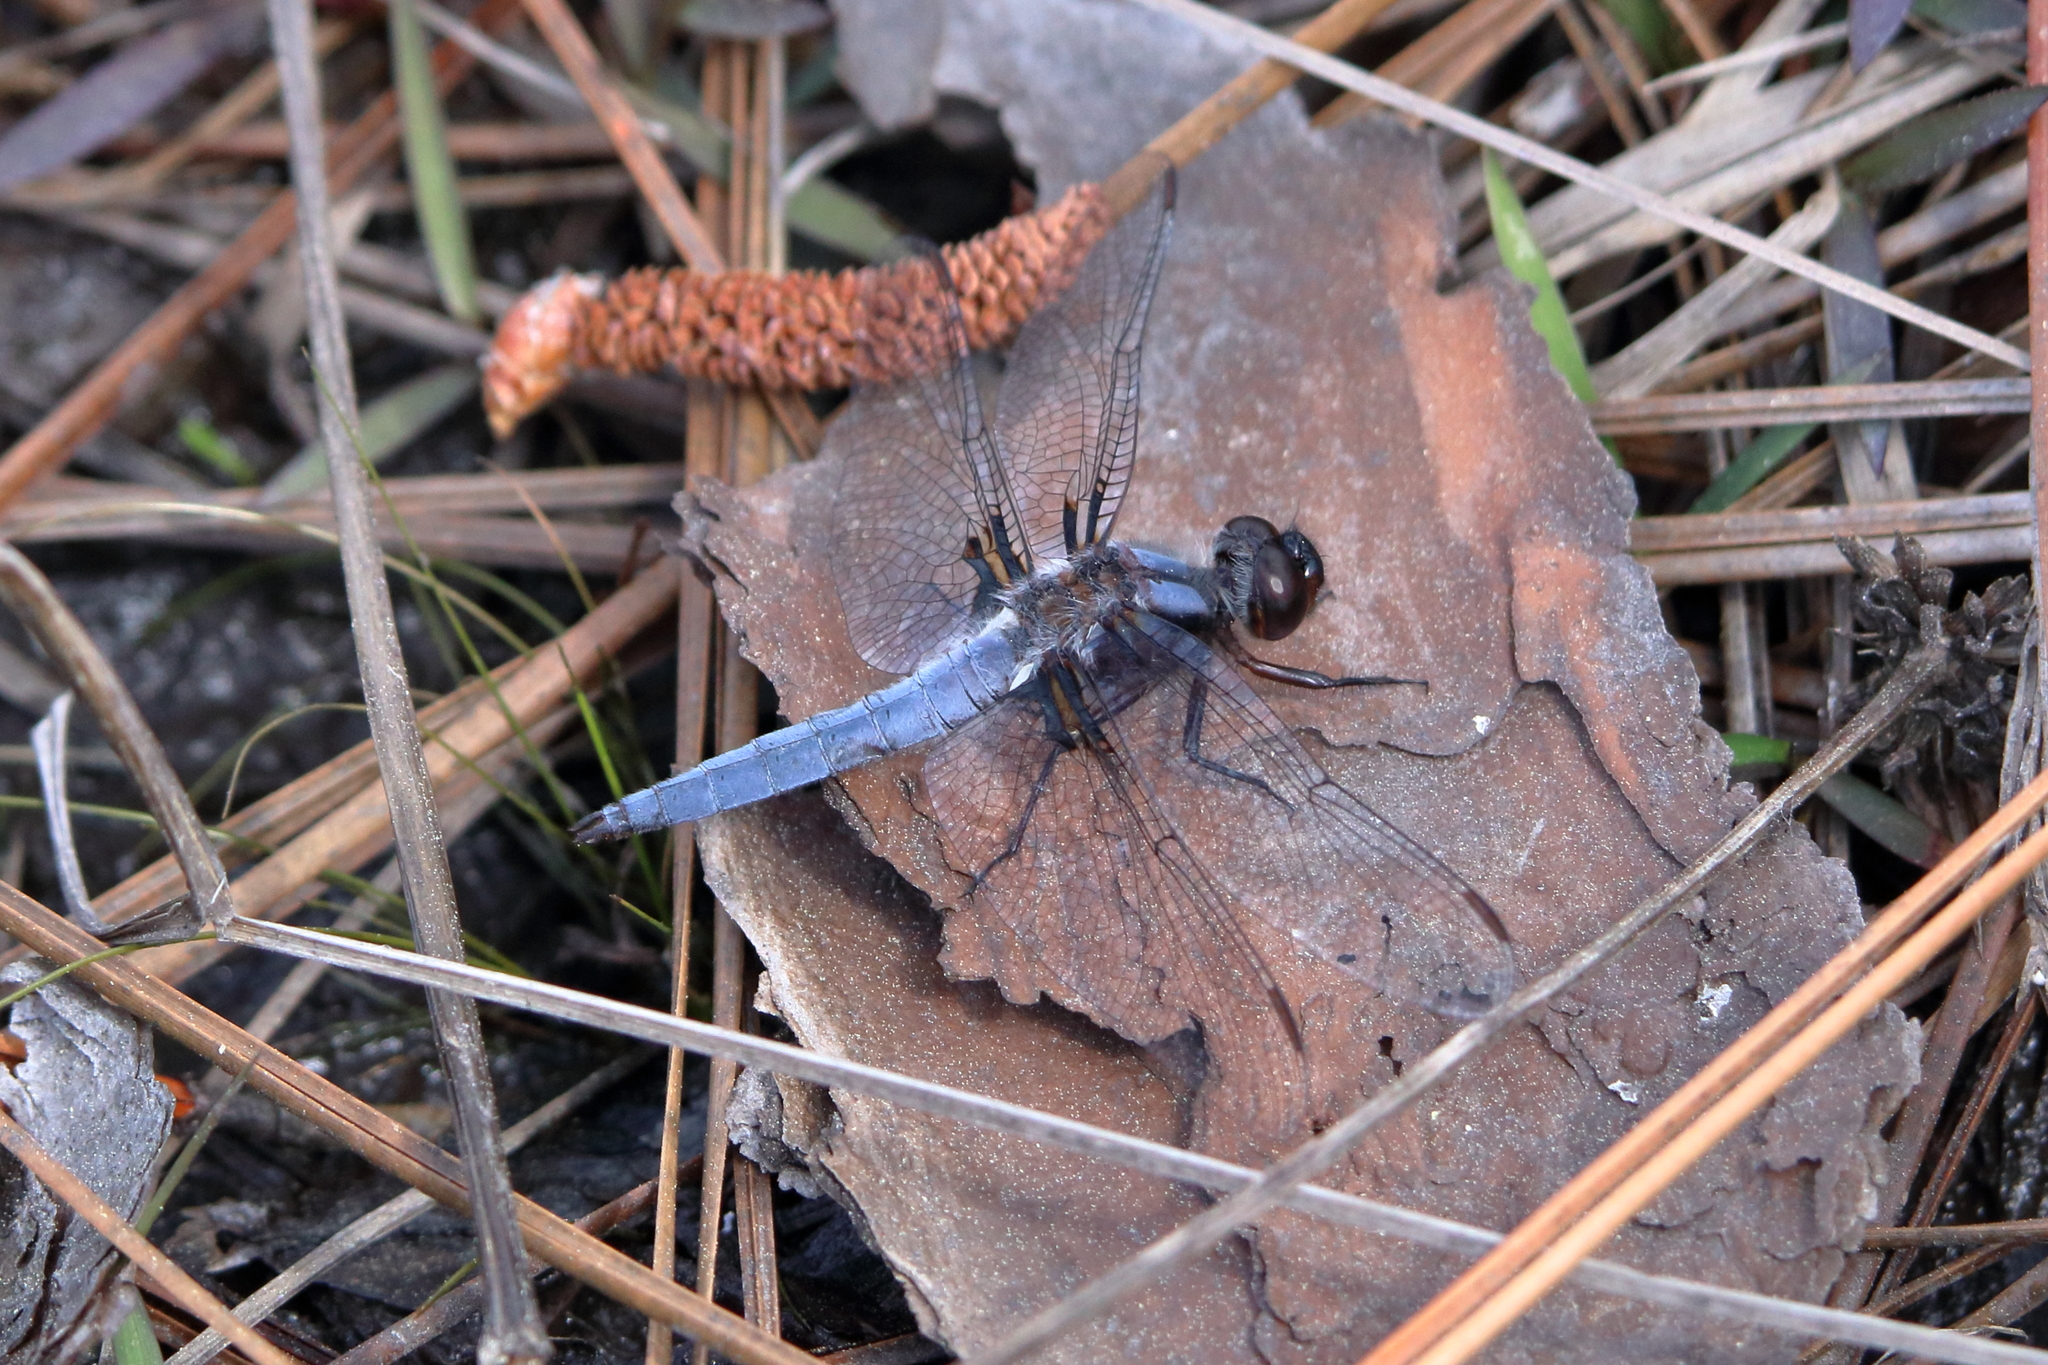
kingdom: Animalia
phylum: Arthropoda
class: Insecta
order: Odonata
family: Libellulidae
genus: Ladona
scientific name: Ladona deplanata
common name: Blue corporal
